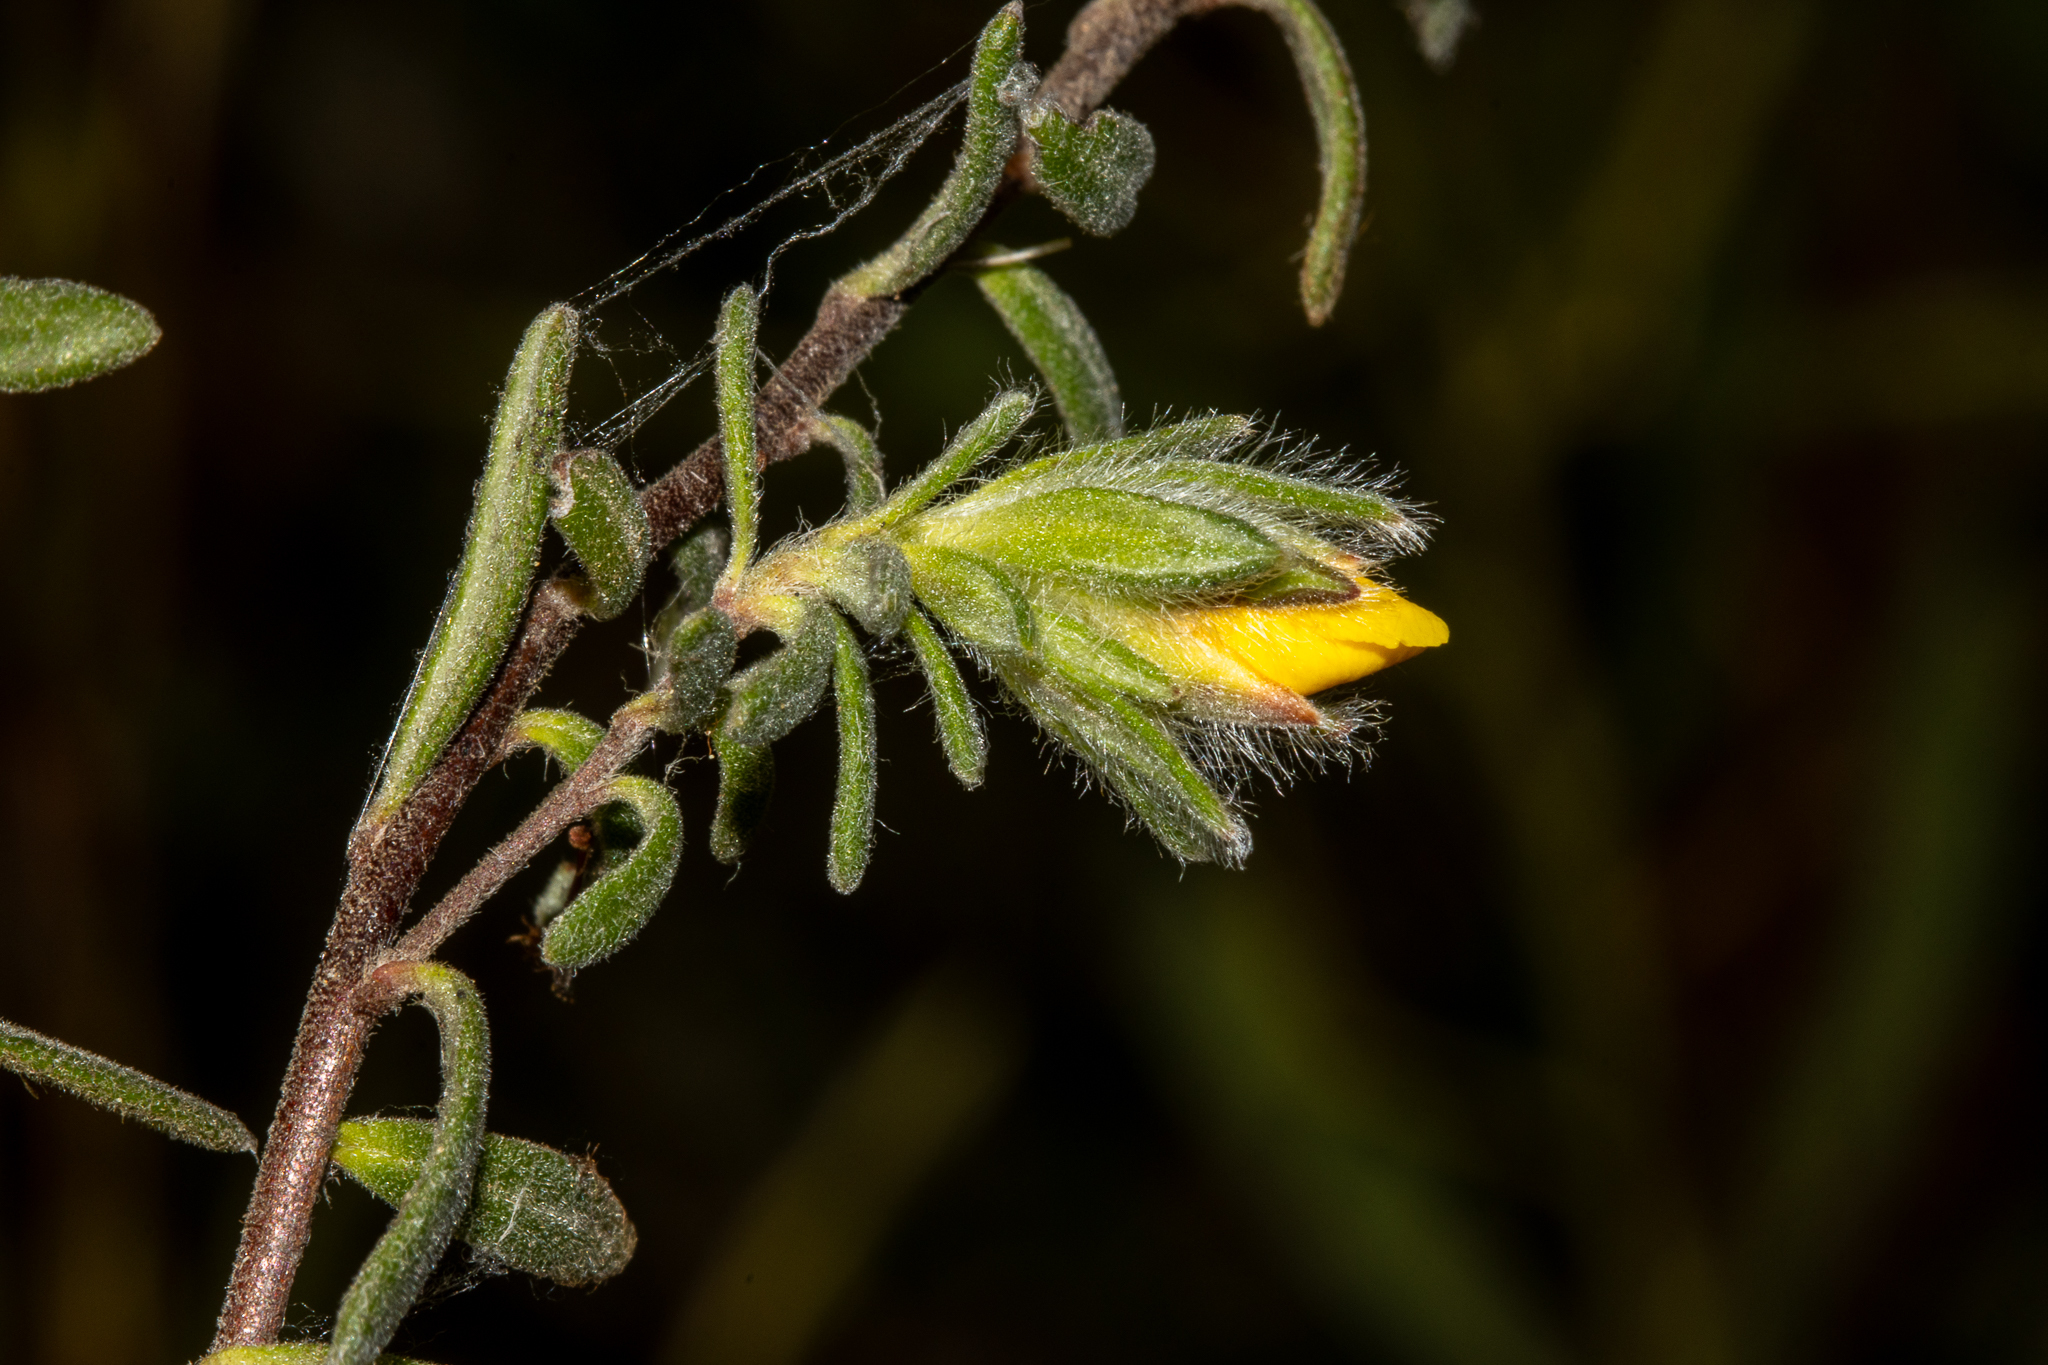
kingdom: Plantae
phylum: Tracheophyta
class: Magnoliopsida
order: Dilleniales
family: Dilleniaceae
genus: Hibbertia
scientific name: Hibbertia crinita
